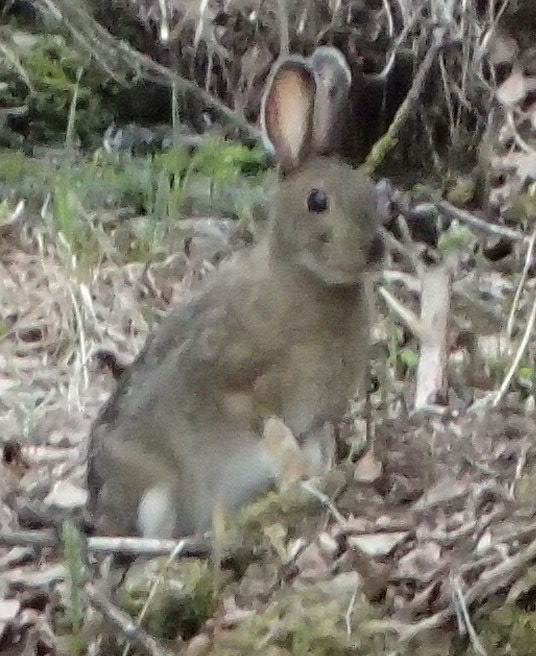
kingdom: Animalia
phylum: Chordata
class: Mammalia
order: Lagomorpha
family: Leporidae
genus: Lepus
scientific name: Lepus americanus
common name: Snowshoe hare
